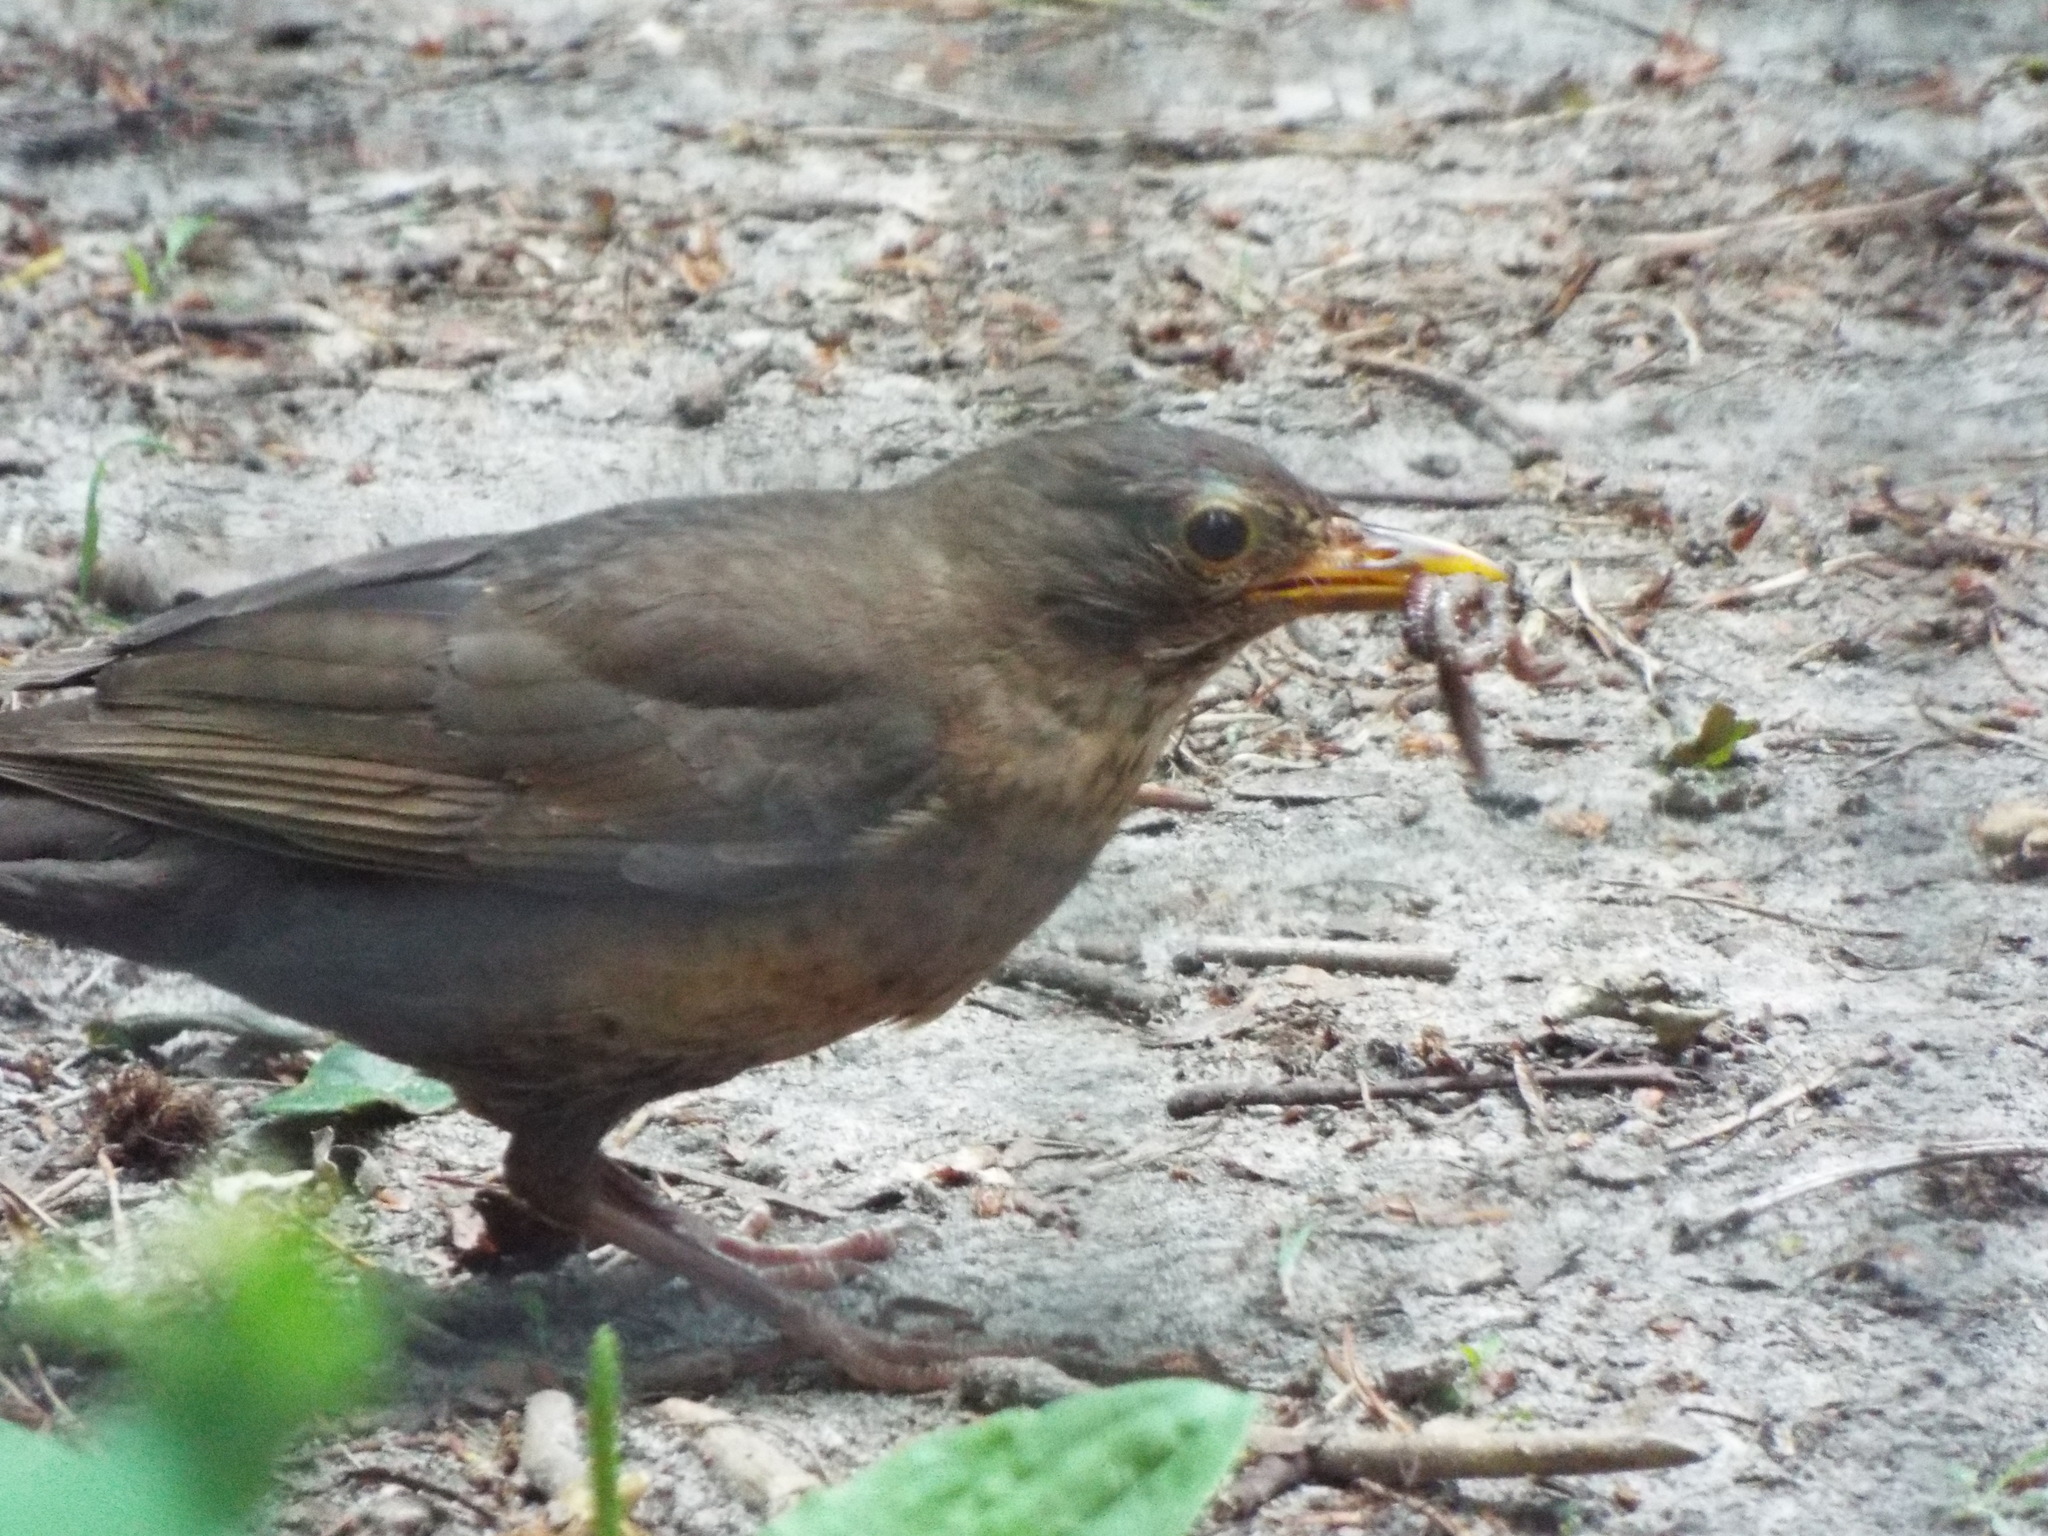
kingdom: Animalia
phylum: Chordata
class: Aves
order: Passeriformes
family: Turdidae
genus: Turdus
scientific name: Turdus merula
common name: Common blackbird
